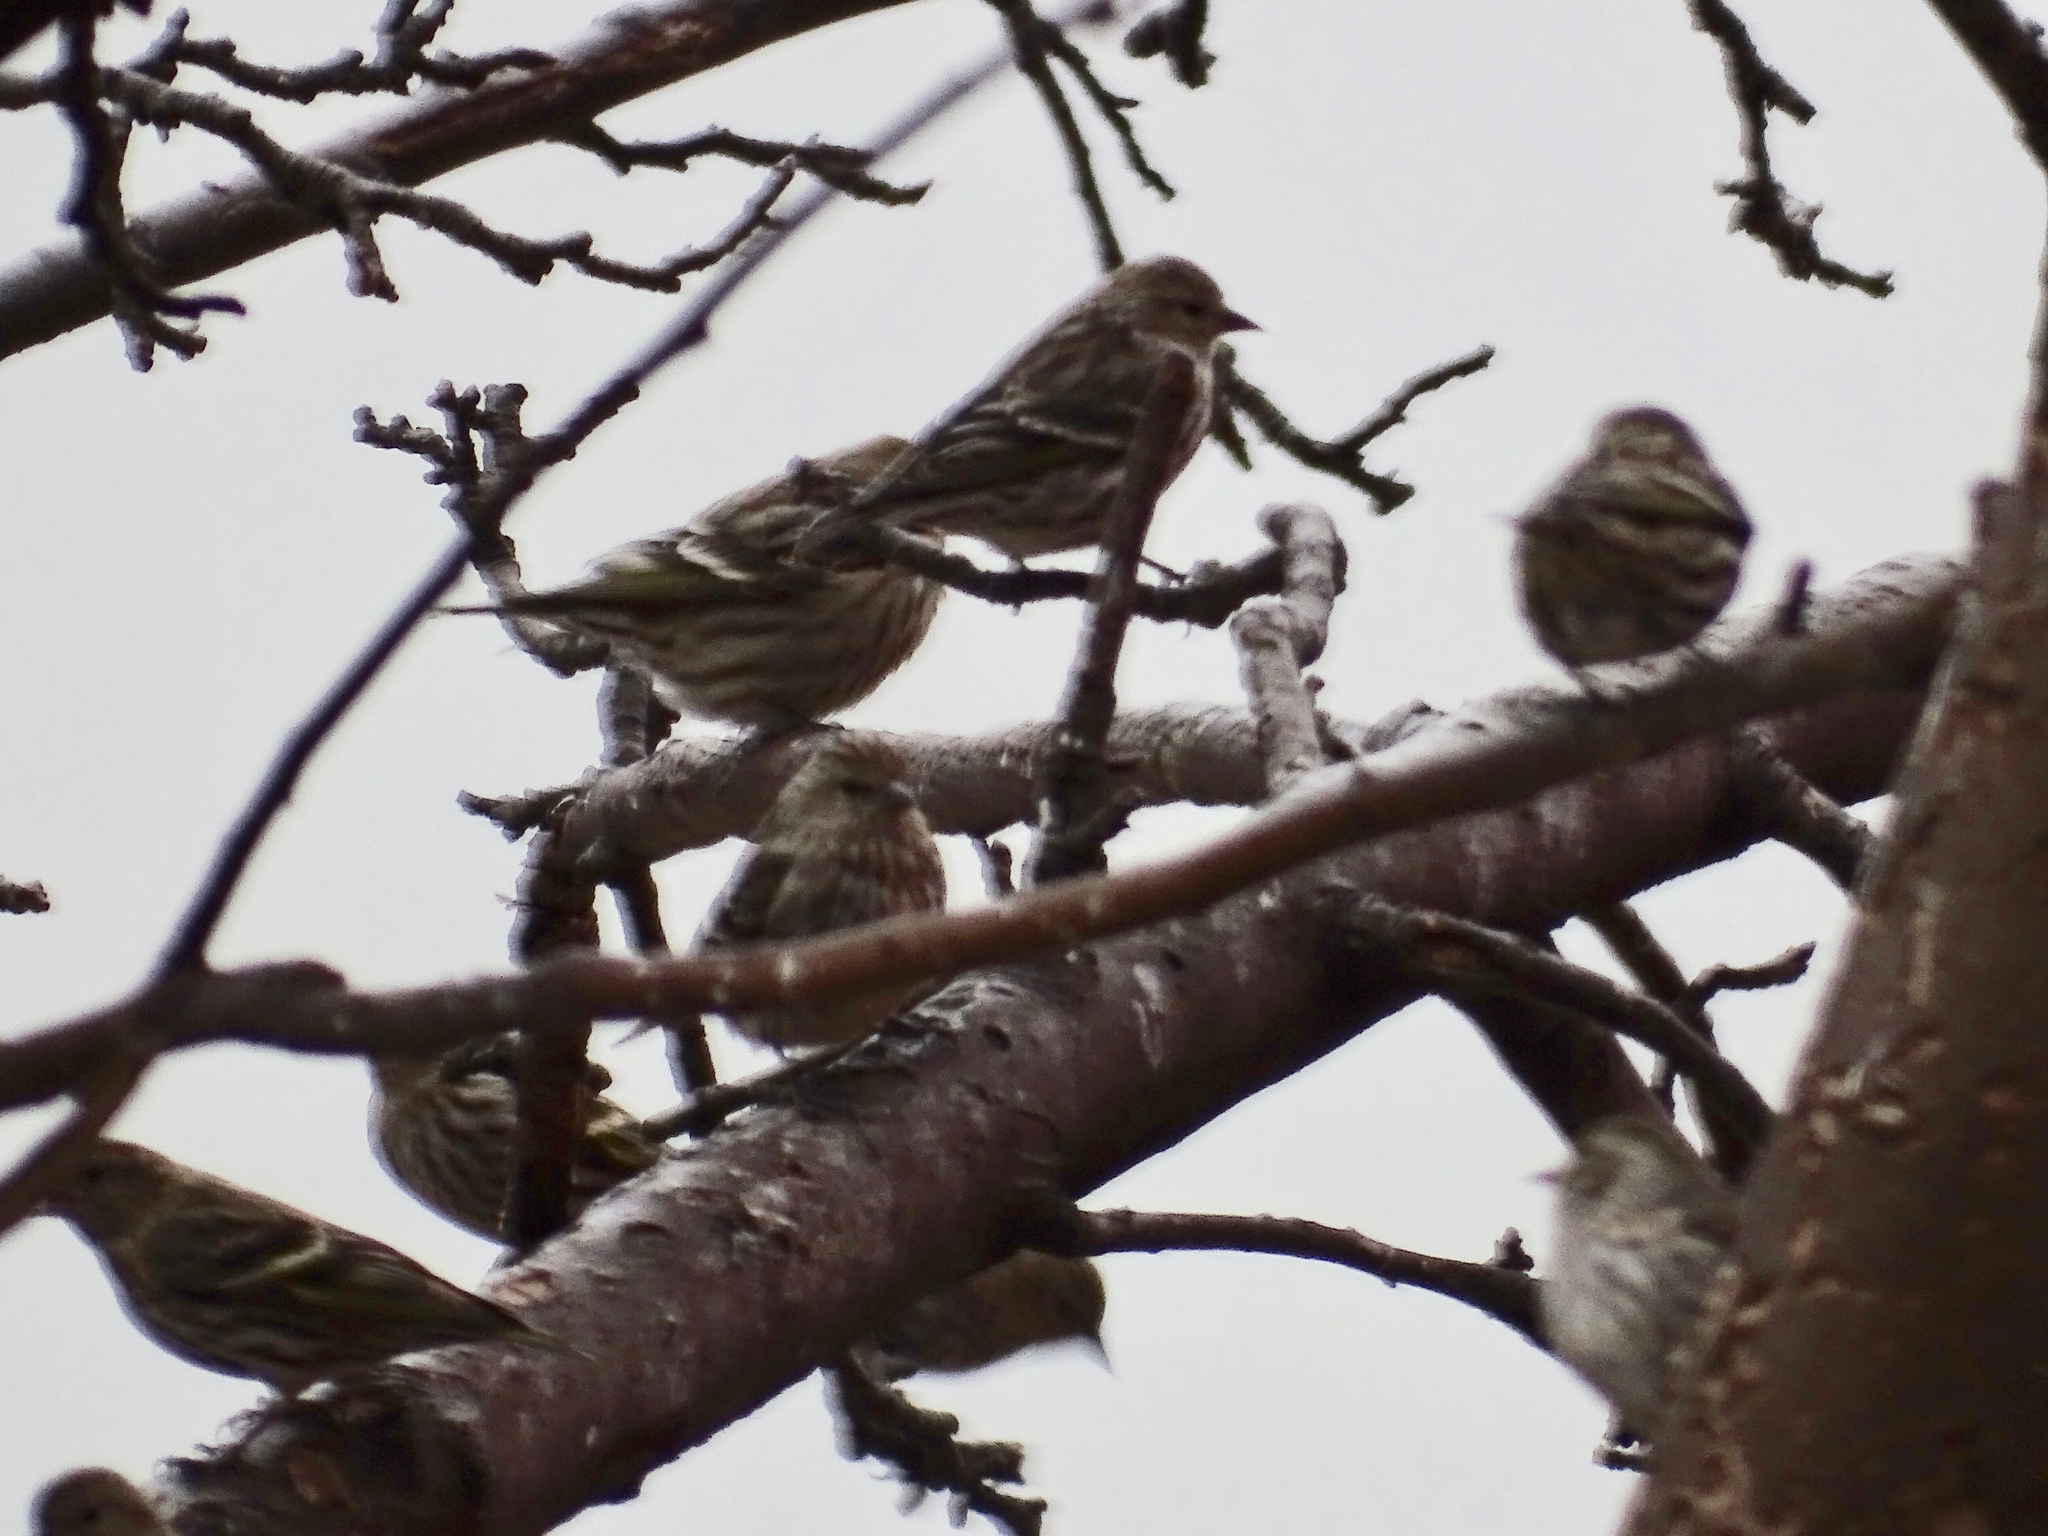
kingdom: Animalia
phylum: Chordata
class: Aves
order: Passeriformes
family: Fringillidae
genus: Spinus
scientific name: Spinus pinus
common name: Pine siskin
